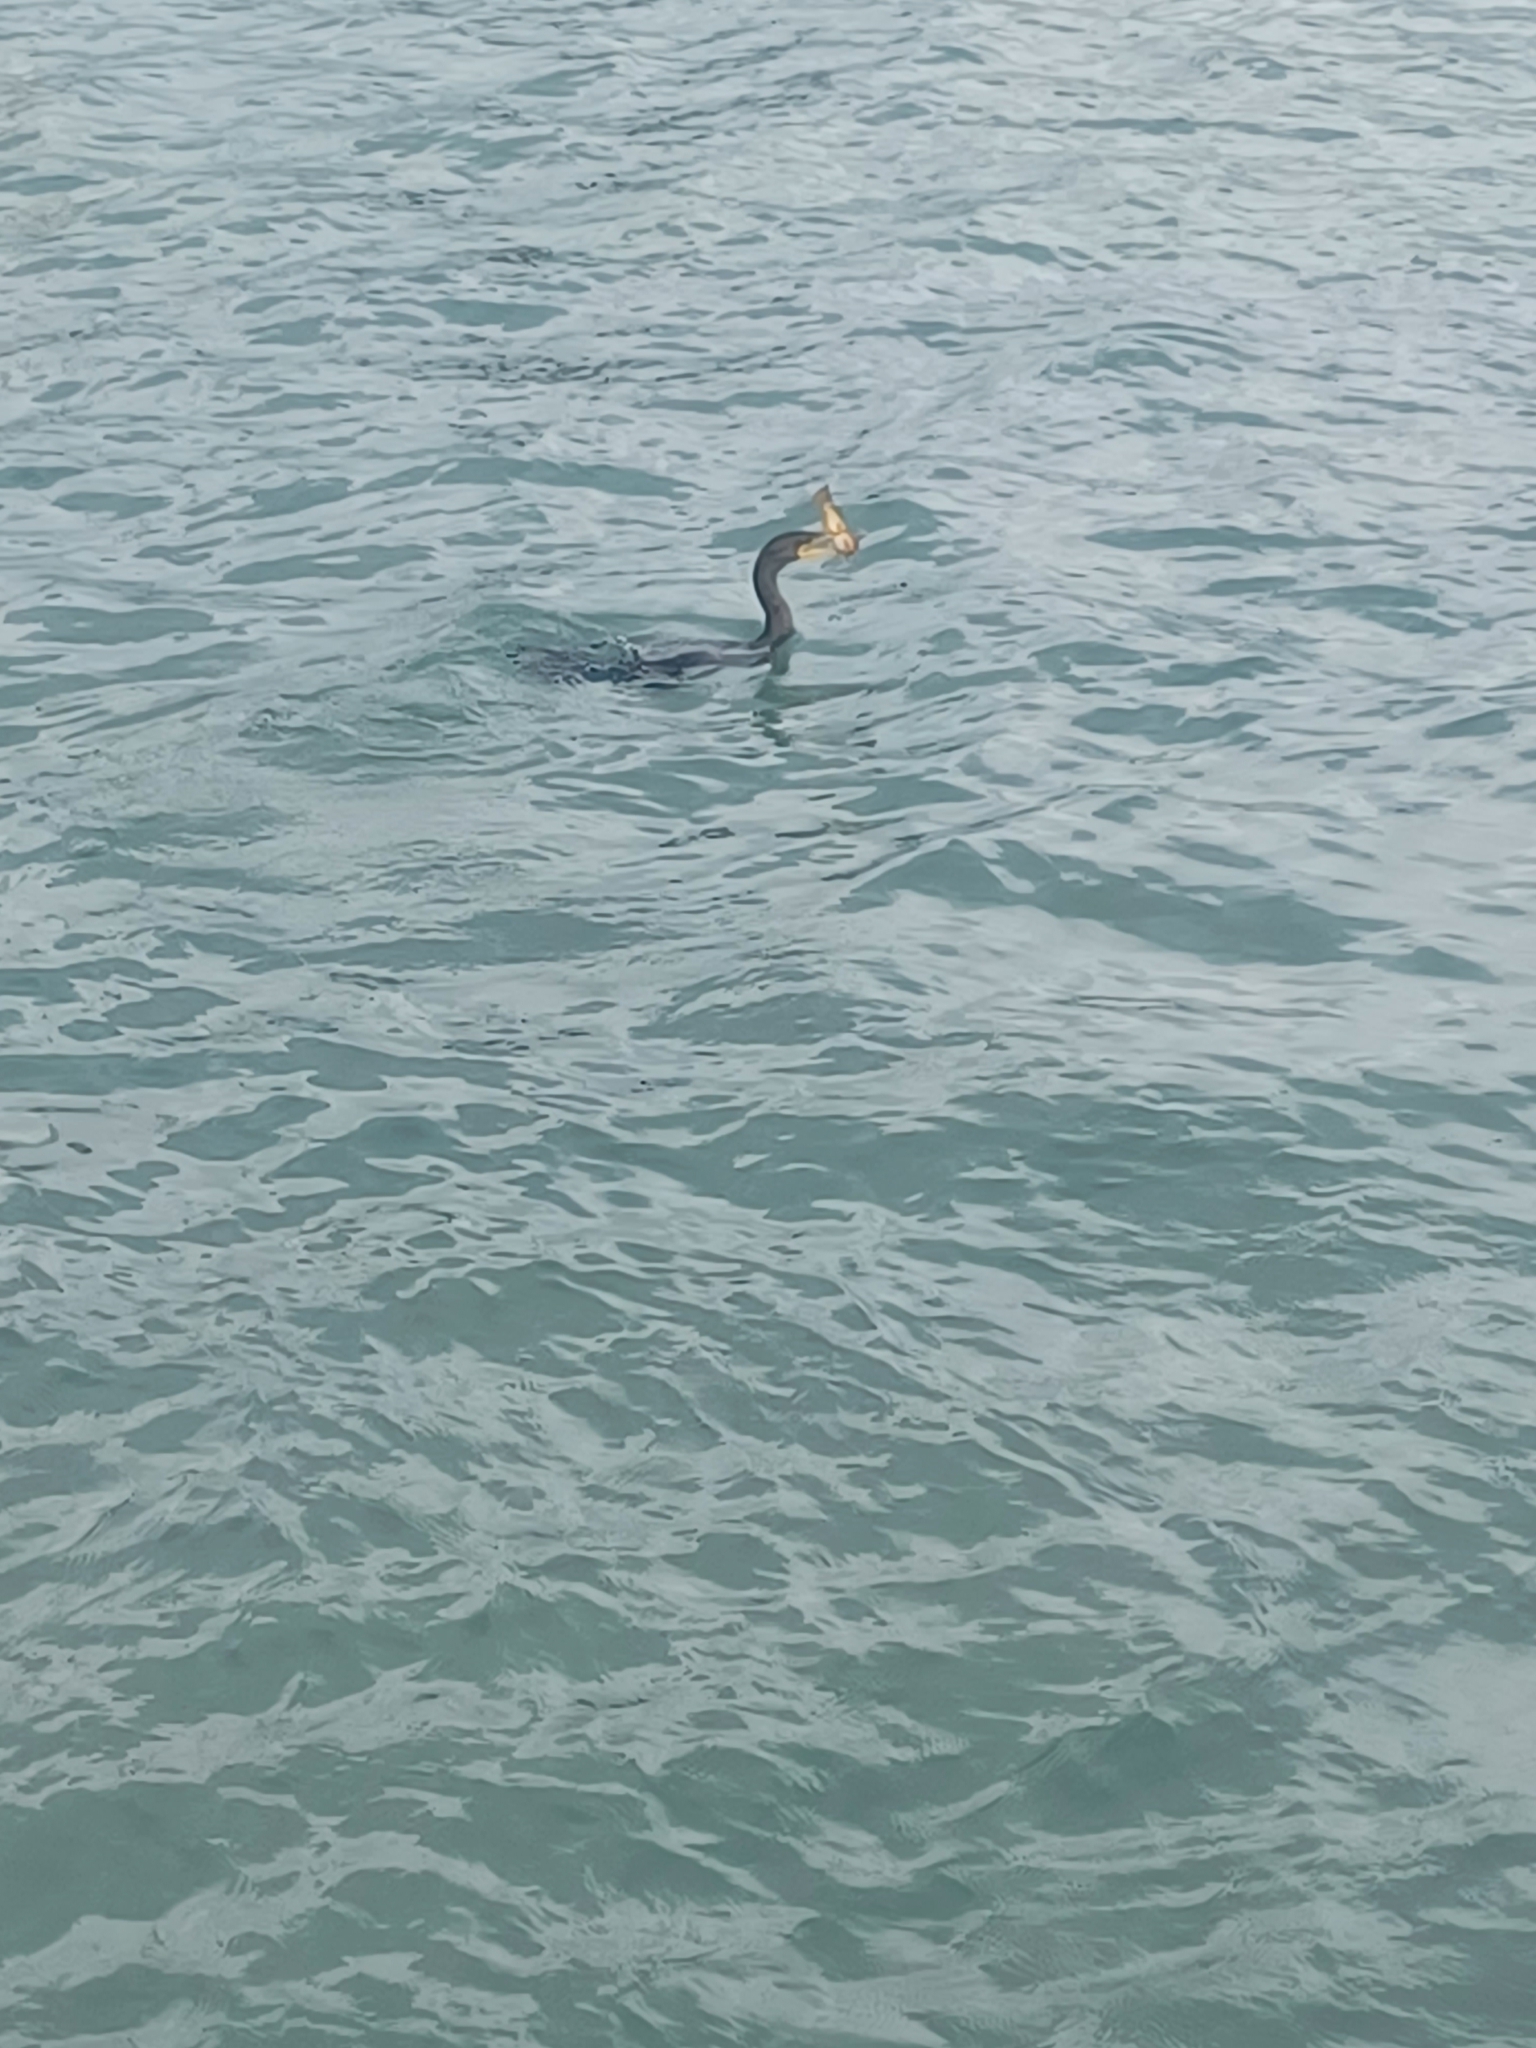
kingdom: Animalia
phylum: Chordata
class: Aves
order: Suliformes
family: Phalacrocoracidae
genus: Phalacrocorax
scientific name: Phalacrocorax auritus
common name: Double-crested cormorant
